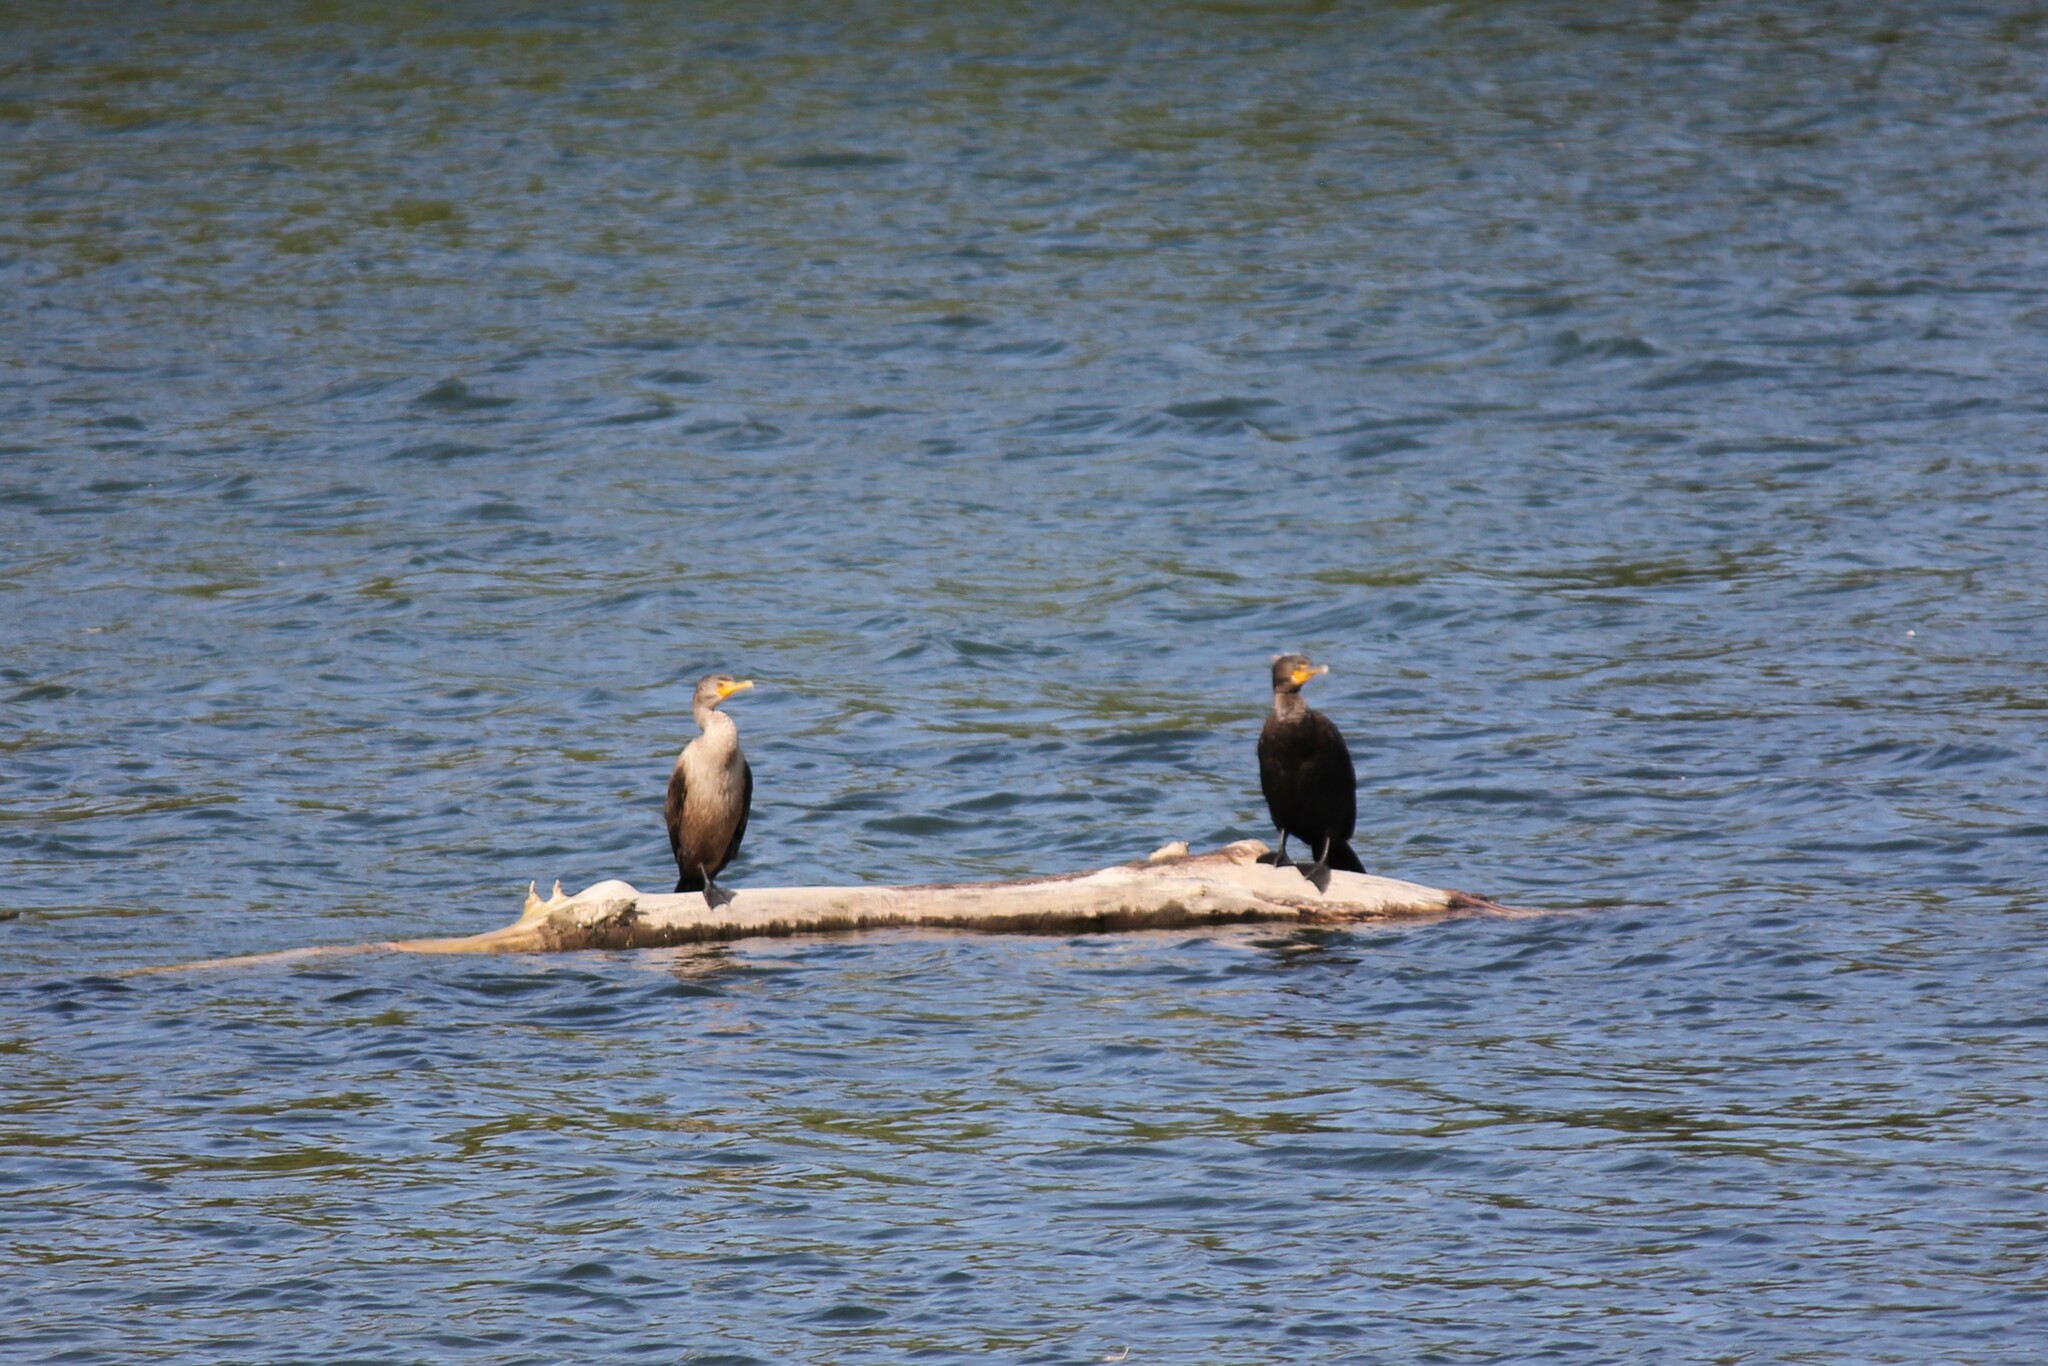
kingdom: Animalia
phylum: Chordata
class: Aves
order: Suliformes
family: Phalacrocoracidae
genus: Phalacrocorax
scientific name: Phalacrocorax auritus
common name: Double-crested cormorant
